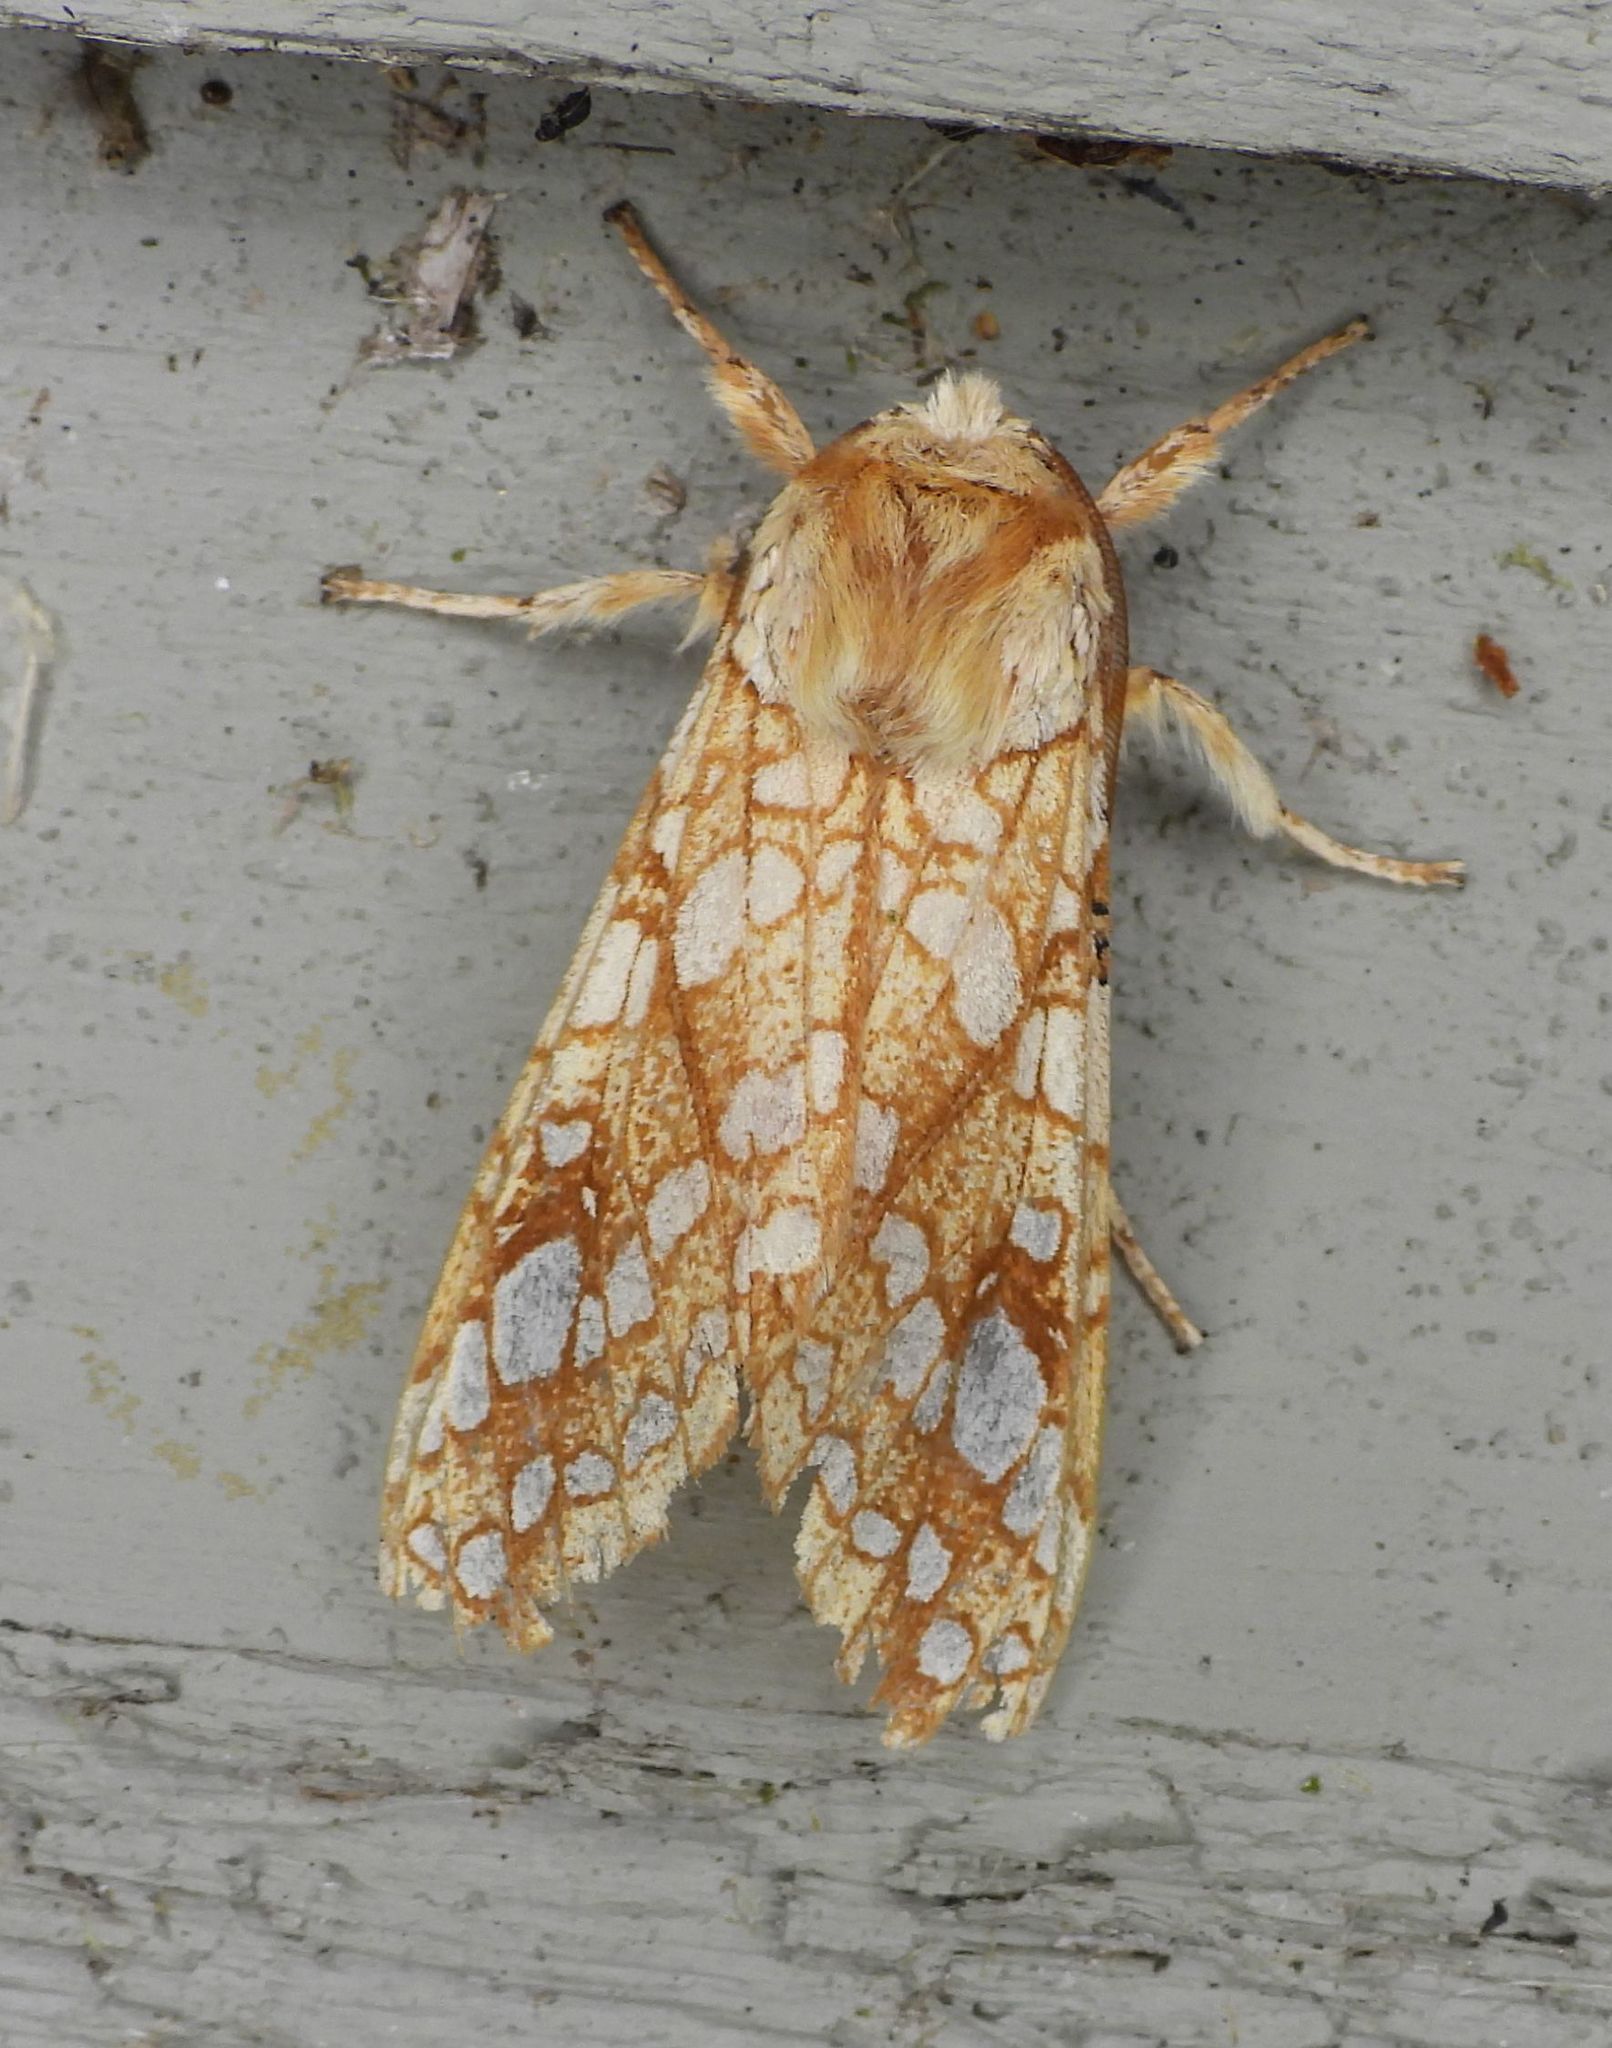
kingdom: Animalia
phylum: Arthropoda
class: Insecta
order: Lepidoptera
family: Erebidae
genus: Lophocampa
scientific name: Lophocampa caryae
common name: Hickory tussock moth
